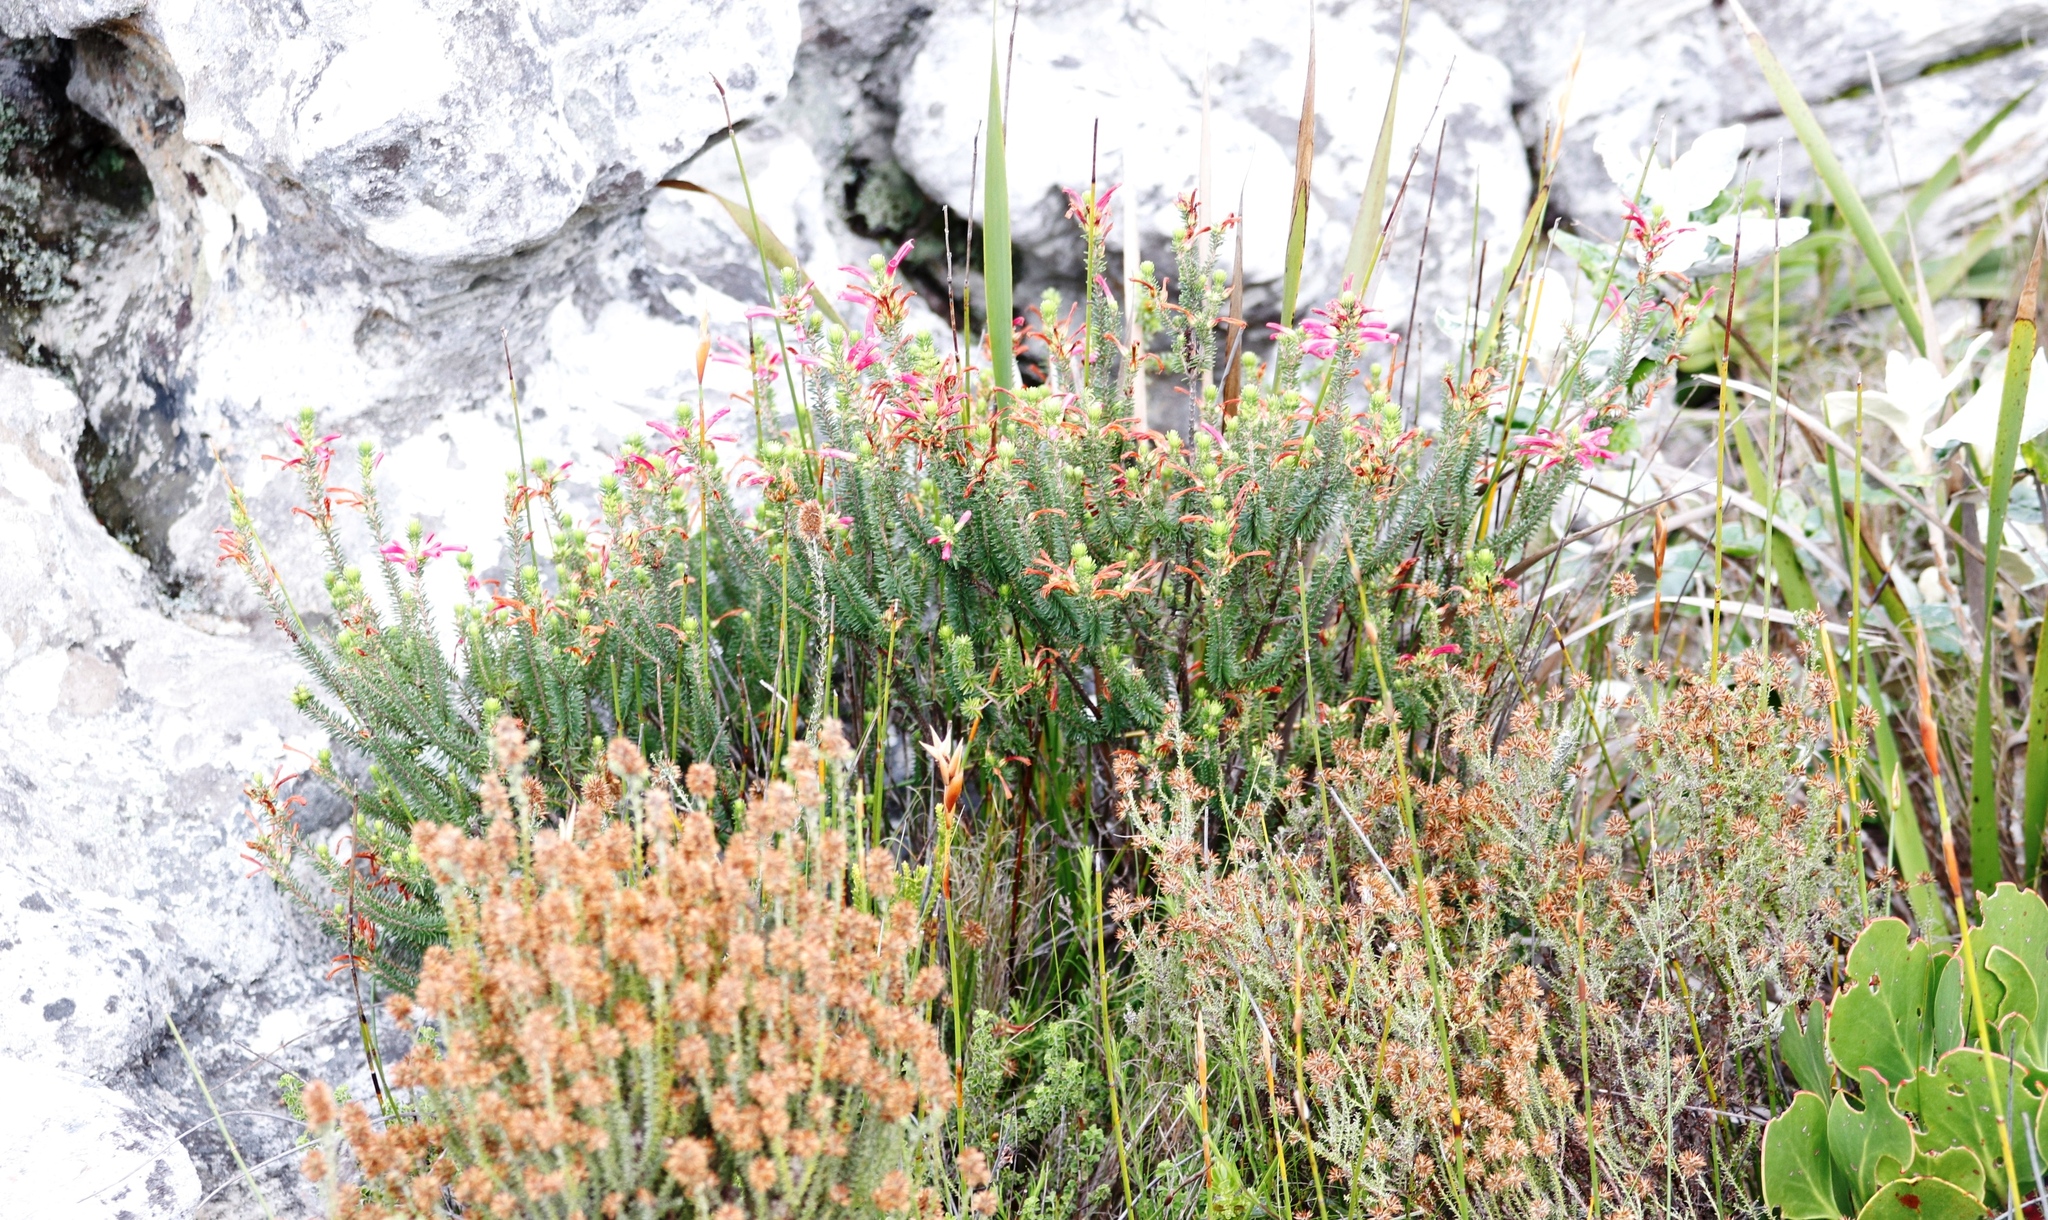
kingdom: Plantae
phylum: Tracheophyta
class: Magnoliopsida
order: Asterales
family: Asteraceae
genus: Seriphium
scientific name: Seriphium spirale
